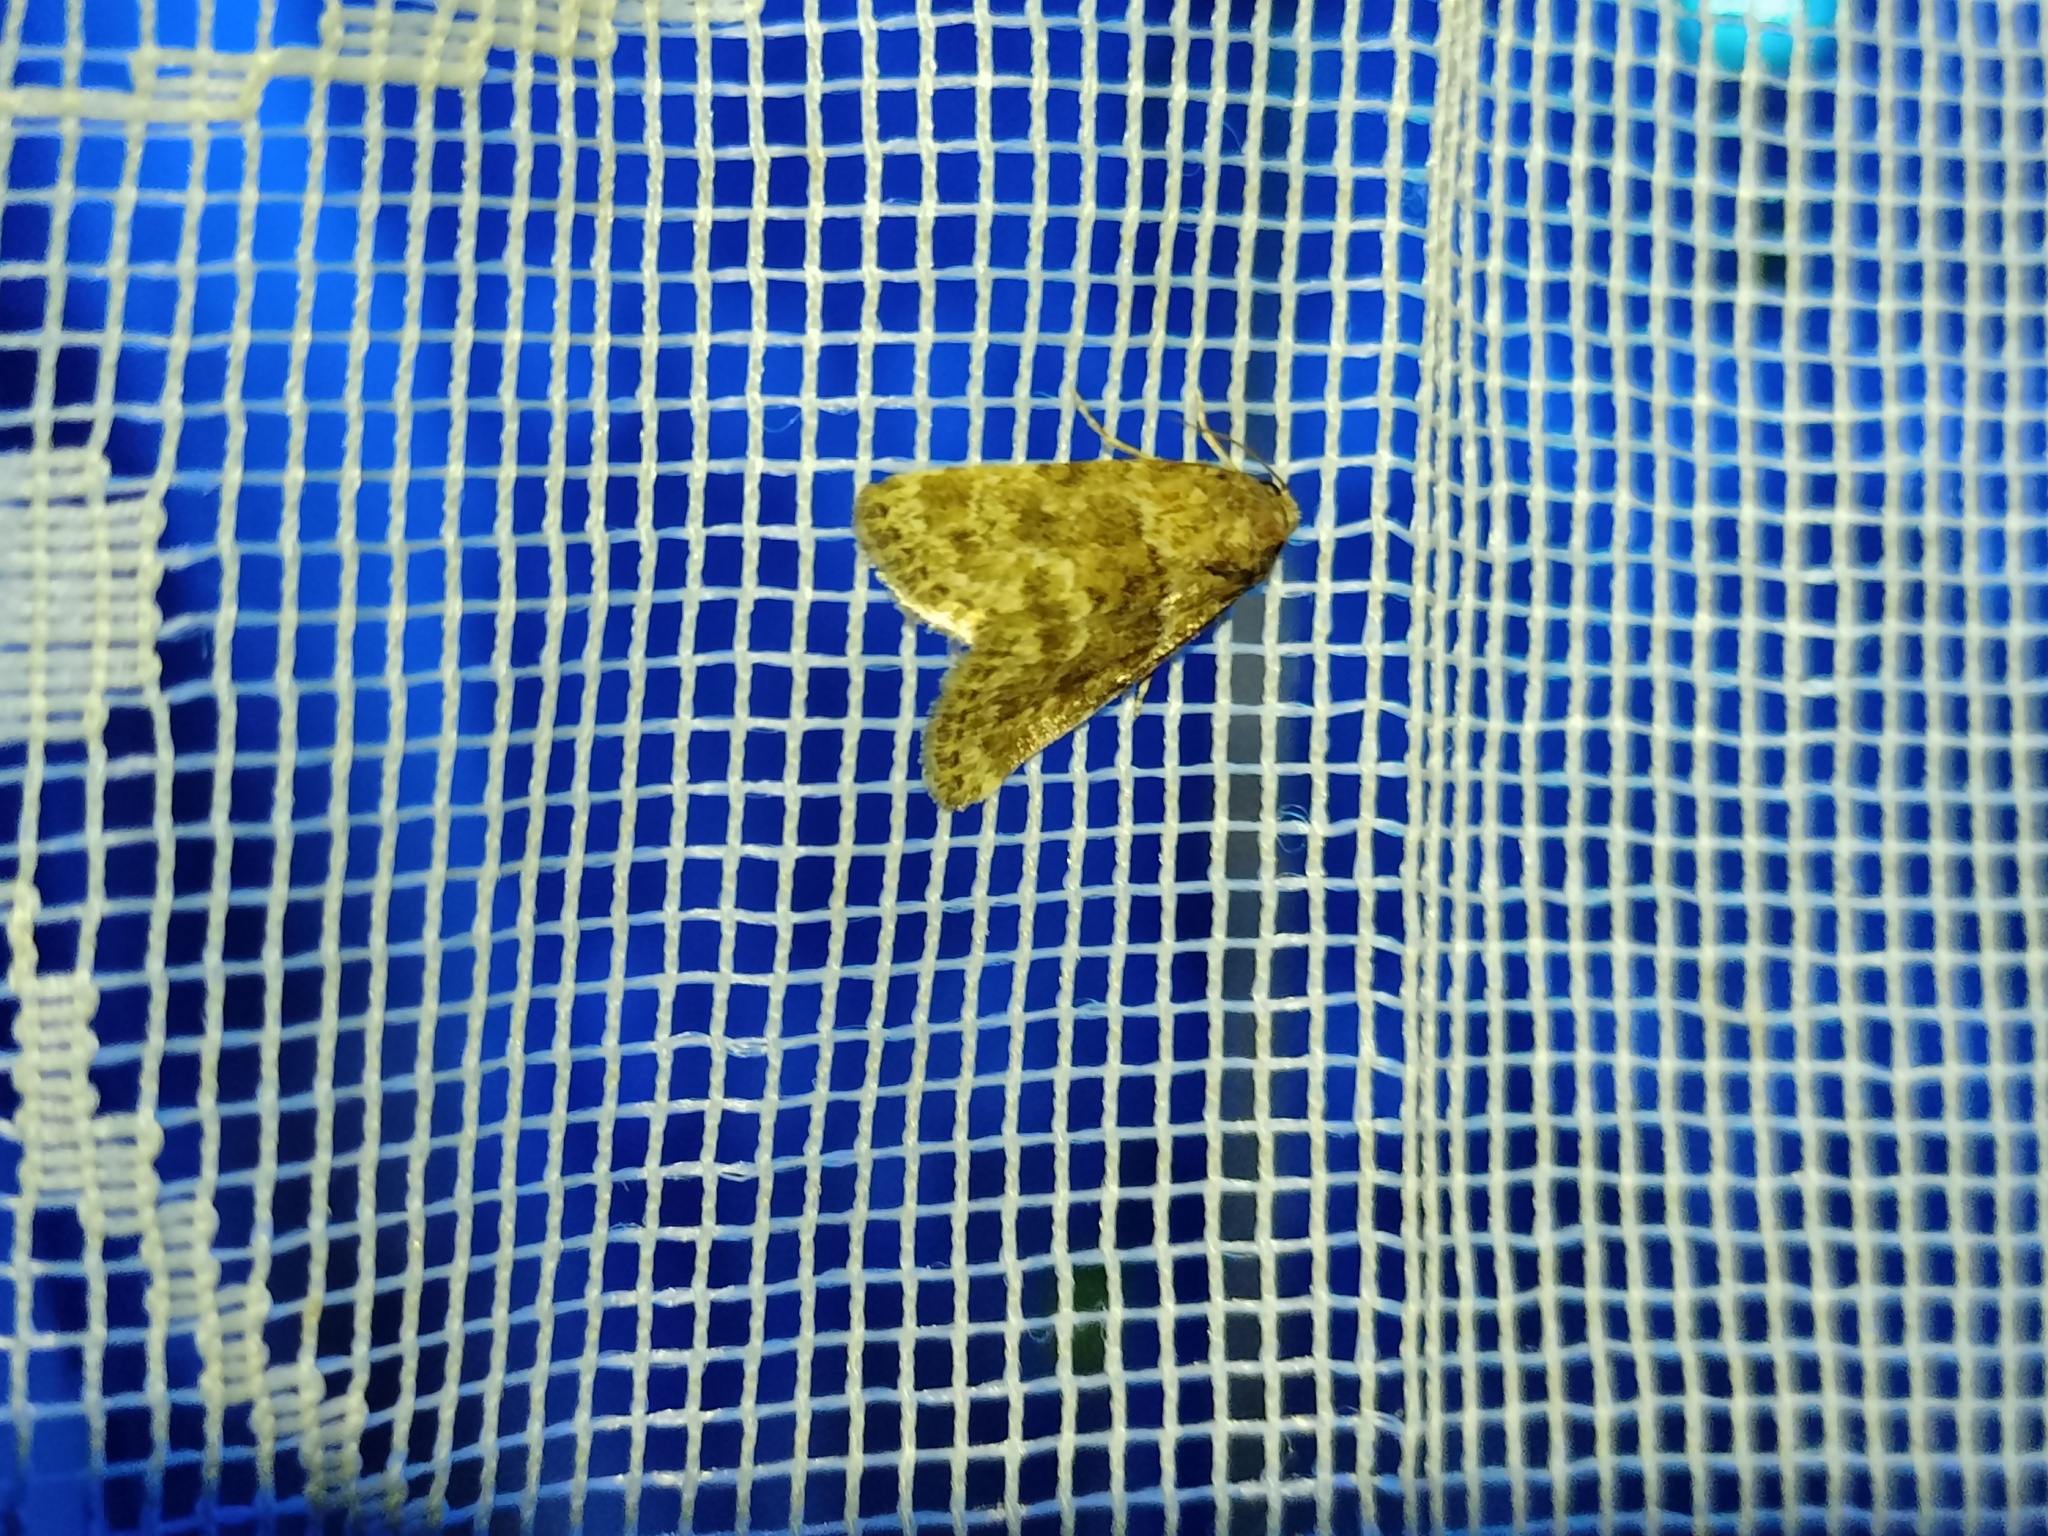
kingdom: Animalia
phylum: Arthropoda
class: Insecta
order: Lepidoptera
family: Noctuidae
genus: Nyctobrya
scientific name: Nyctobrya simonyi
